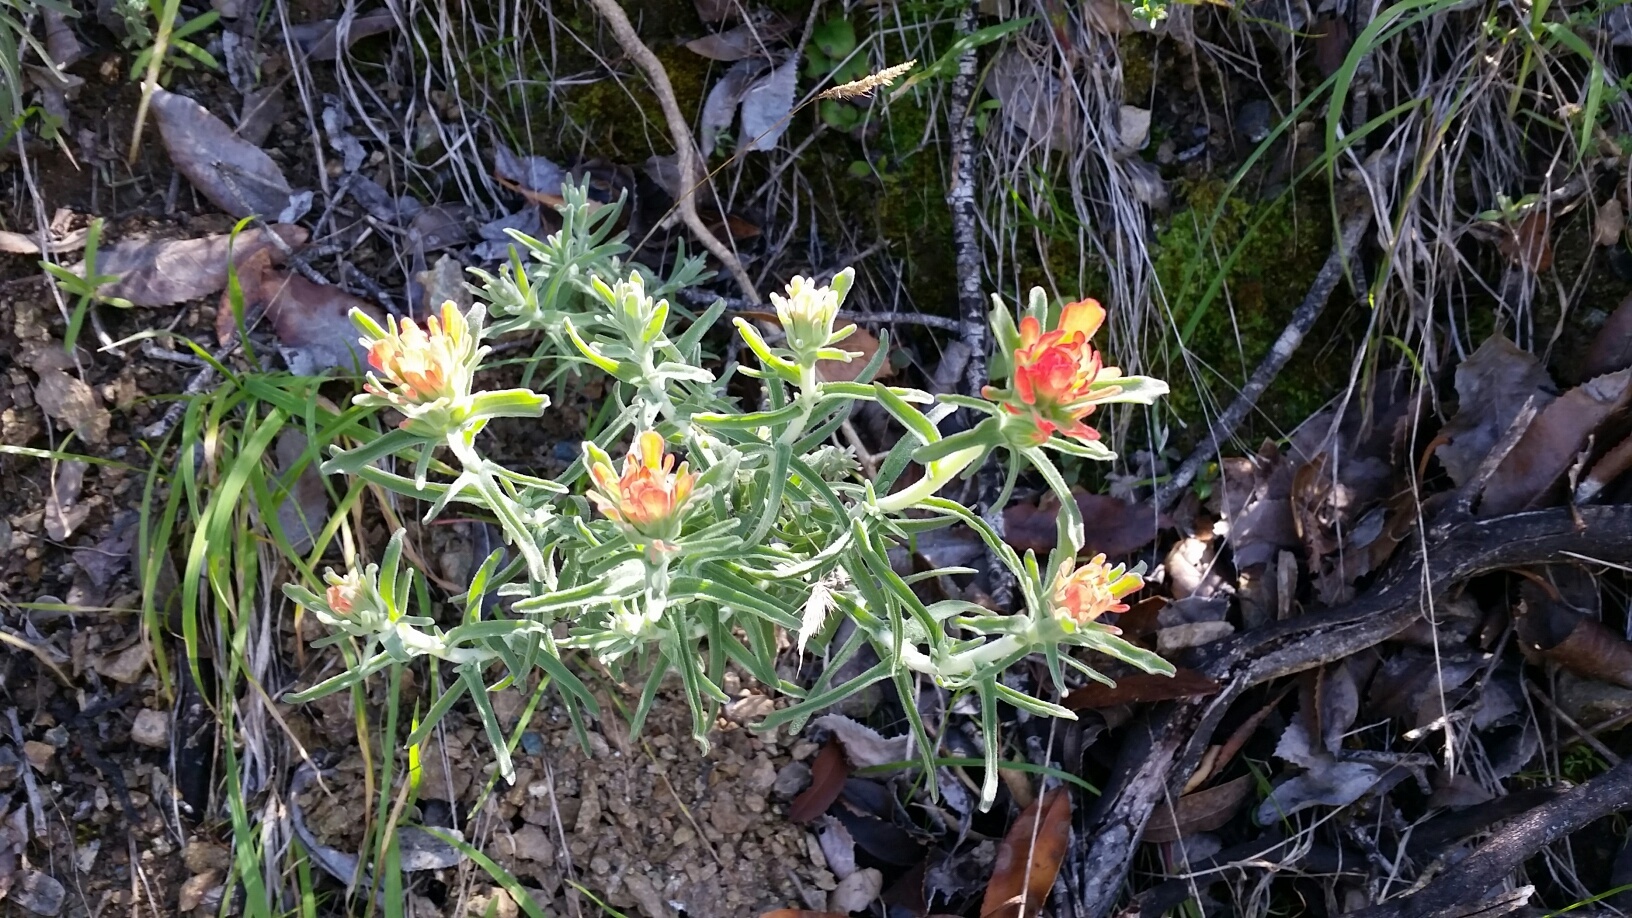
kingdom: Plantae
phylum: Tracheophyta
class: Magnoliopsida
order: Lamiales
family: Orobanchaceae
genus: Castilleja
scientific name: Castilleja foliolosa
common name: Woolly indian paintbrush
